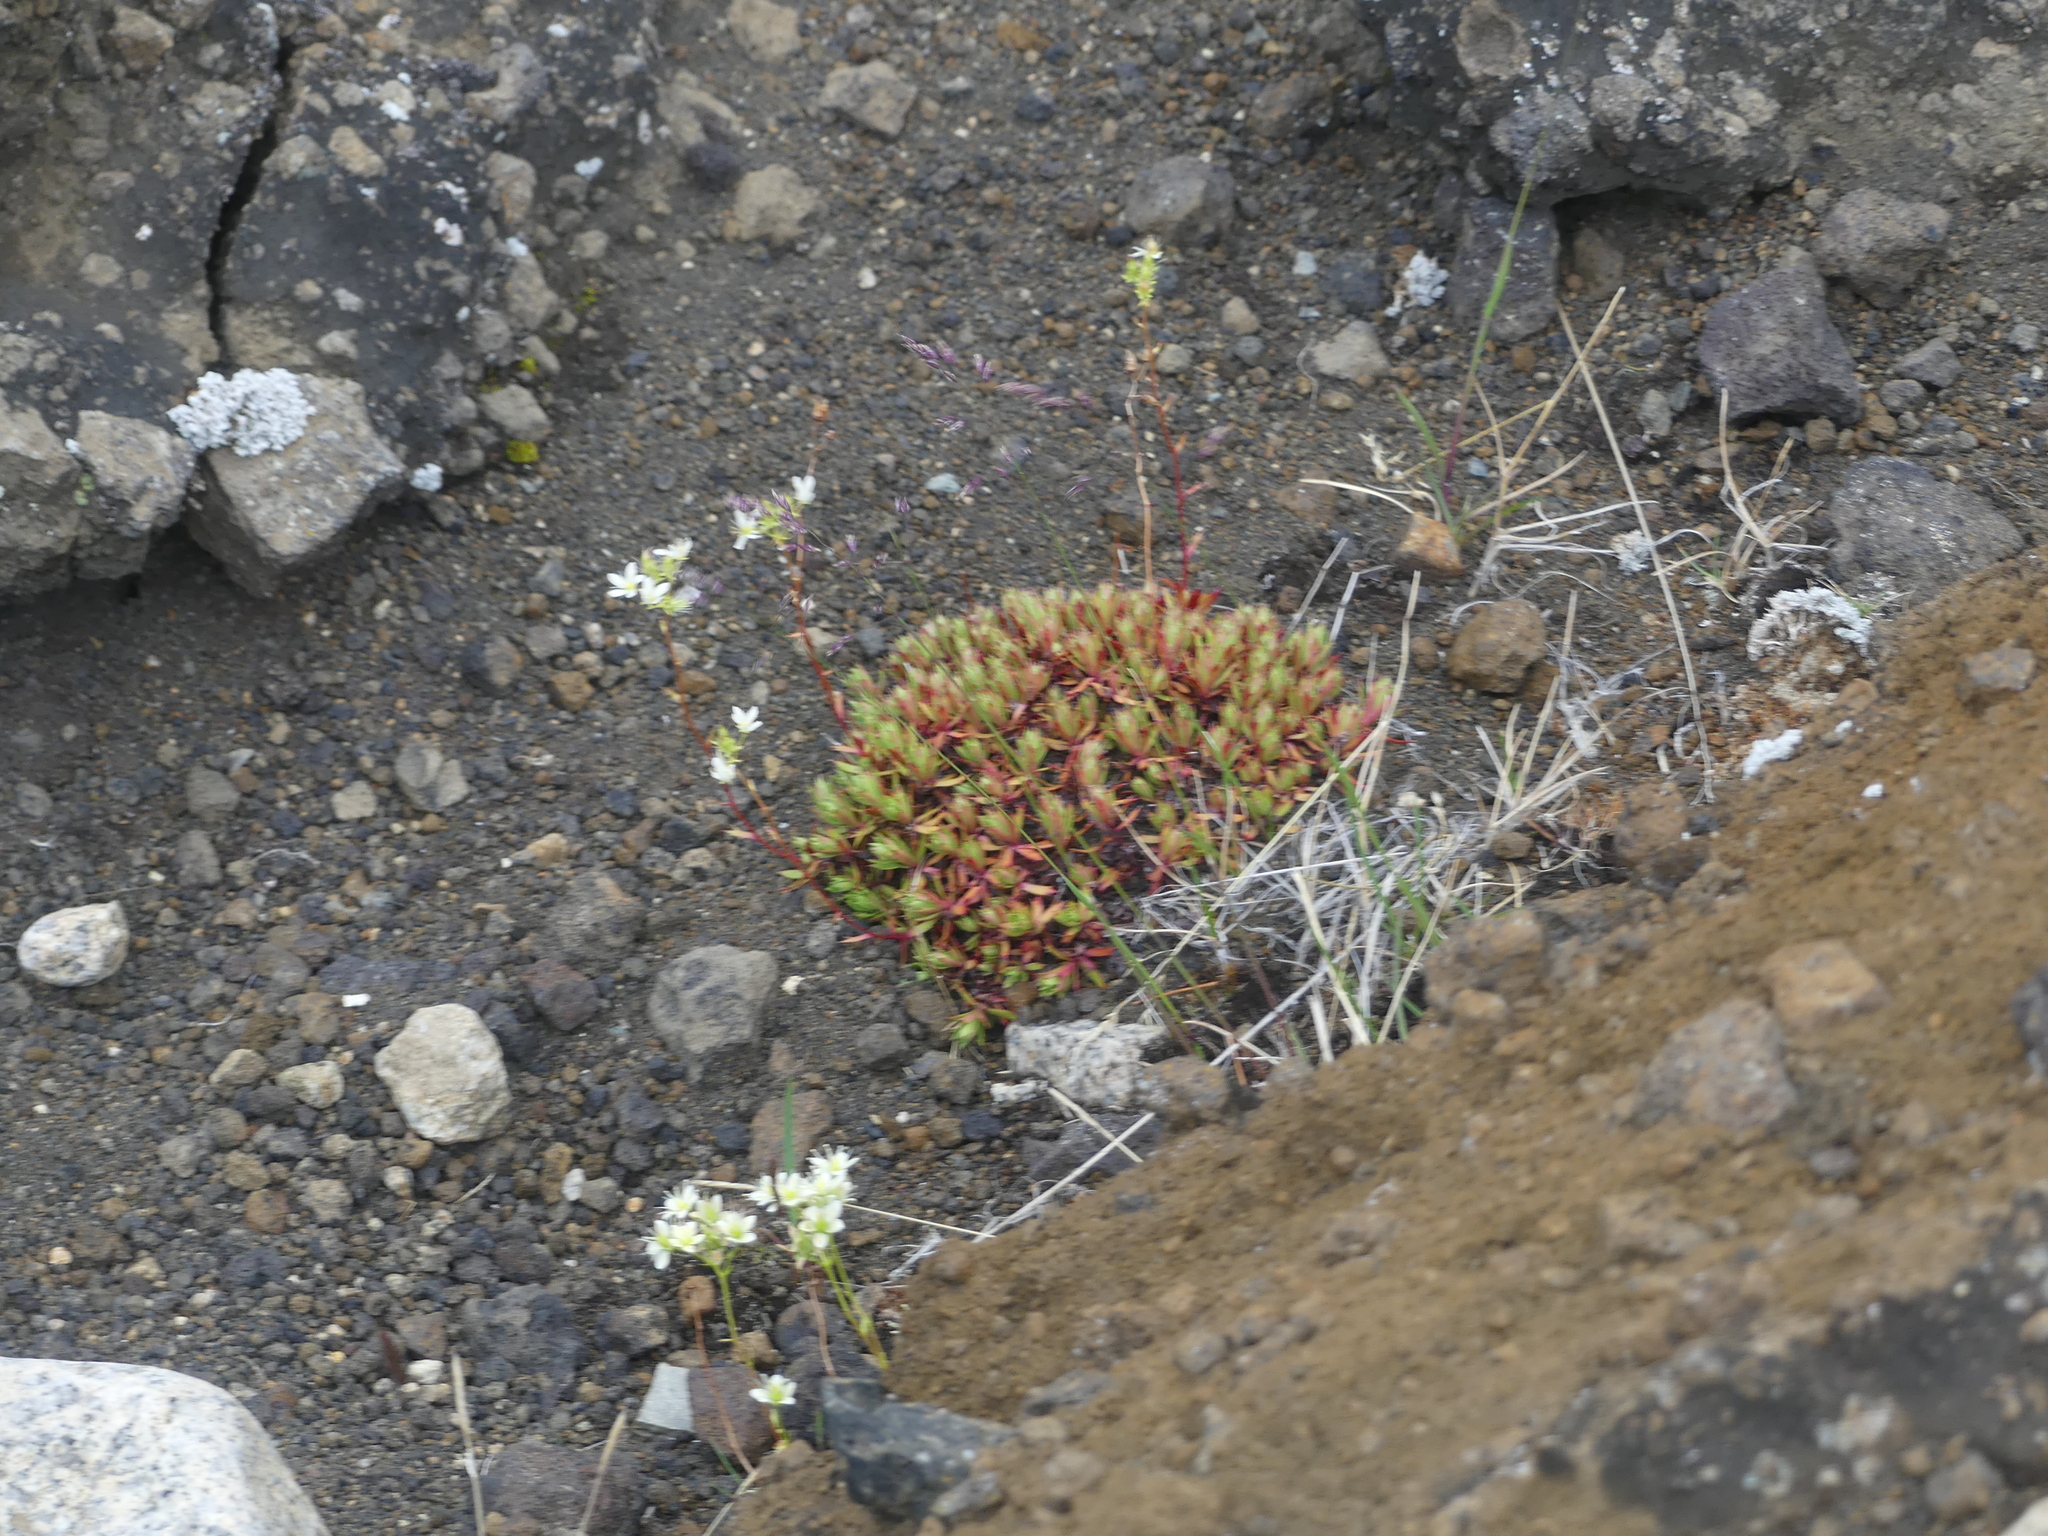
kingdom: Plantae
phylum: Tracheophyta
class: Magnoliopsida
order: Saxifragales
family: Saxifragaceae
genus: Saxifraga
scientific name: Saxifraga tricuspidata
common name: Prickly saxifrage
